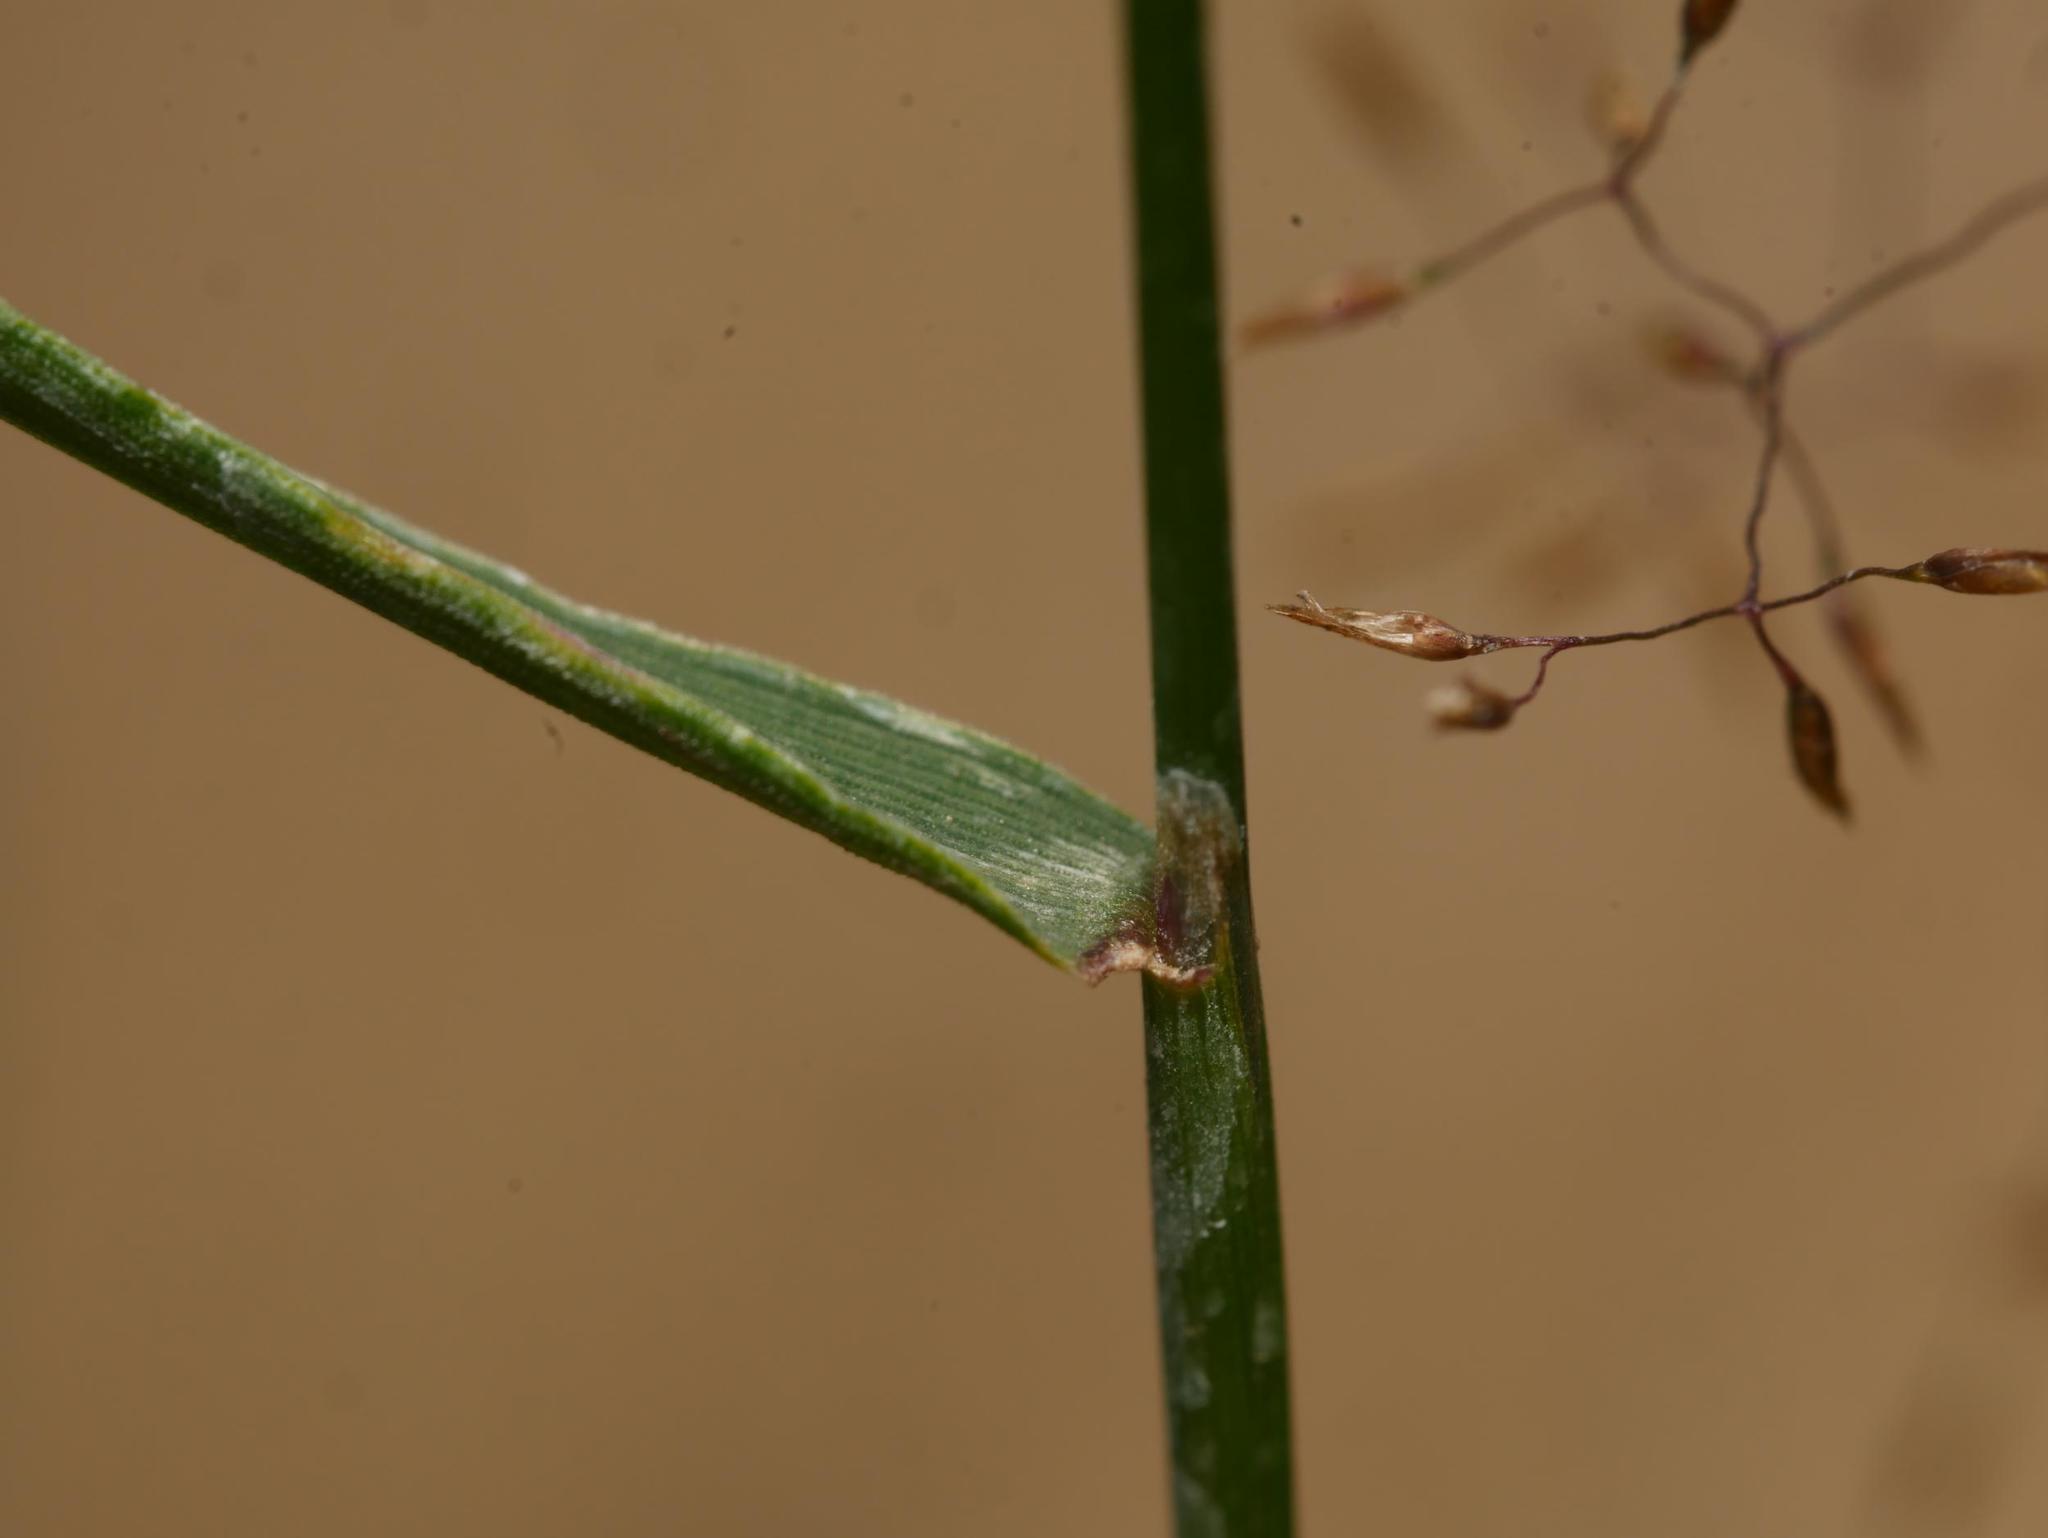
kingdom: Plantae
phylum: Tracheophyta
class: Liliopsida
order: Poales
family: Poaceae
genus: Agrostis
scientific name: Agrostis capillaris
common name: Colonial bentgrass
